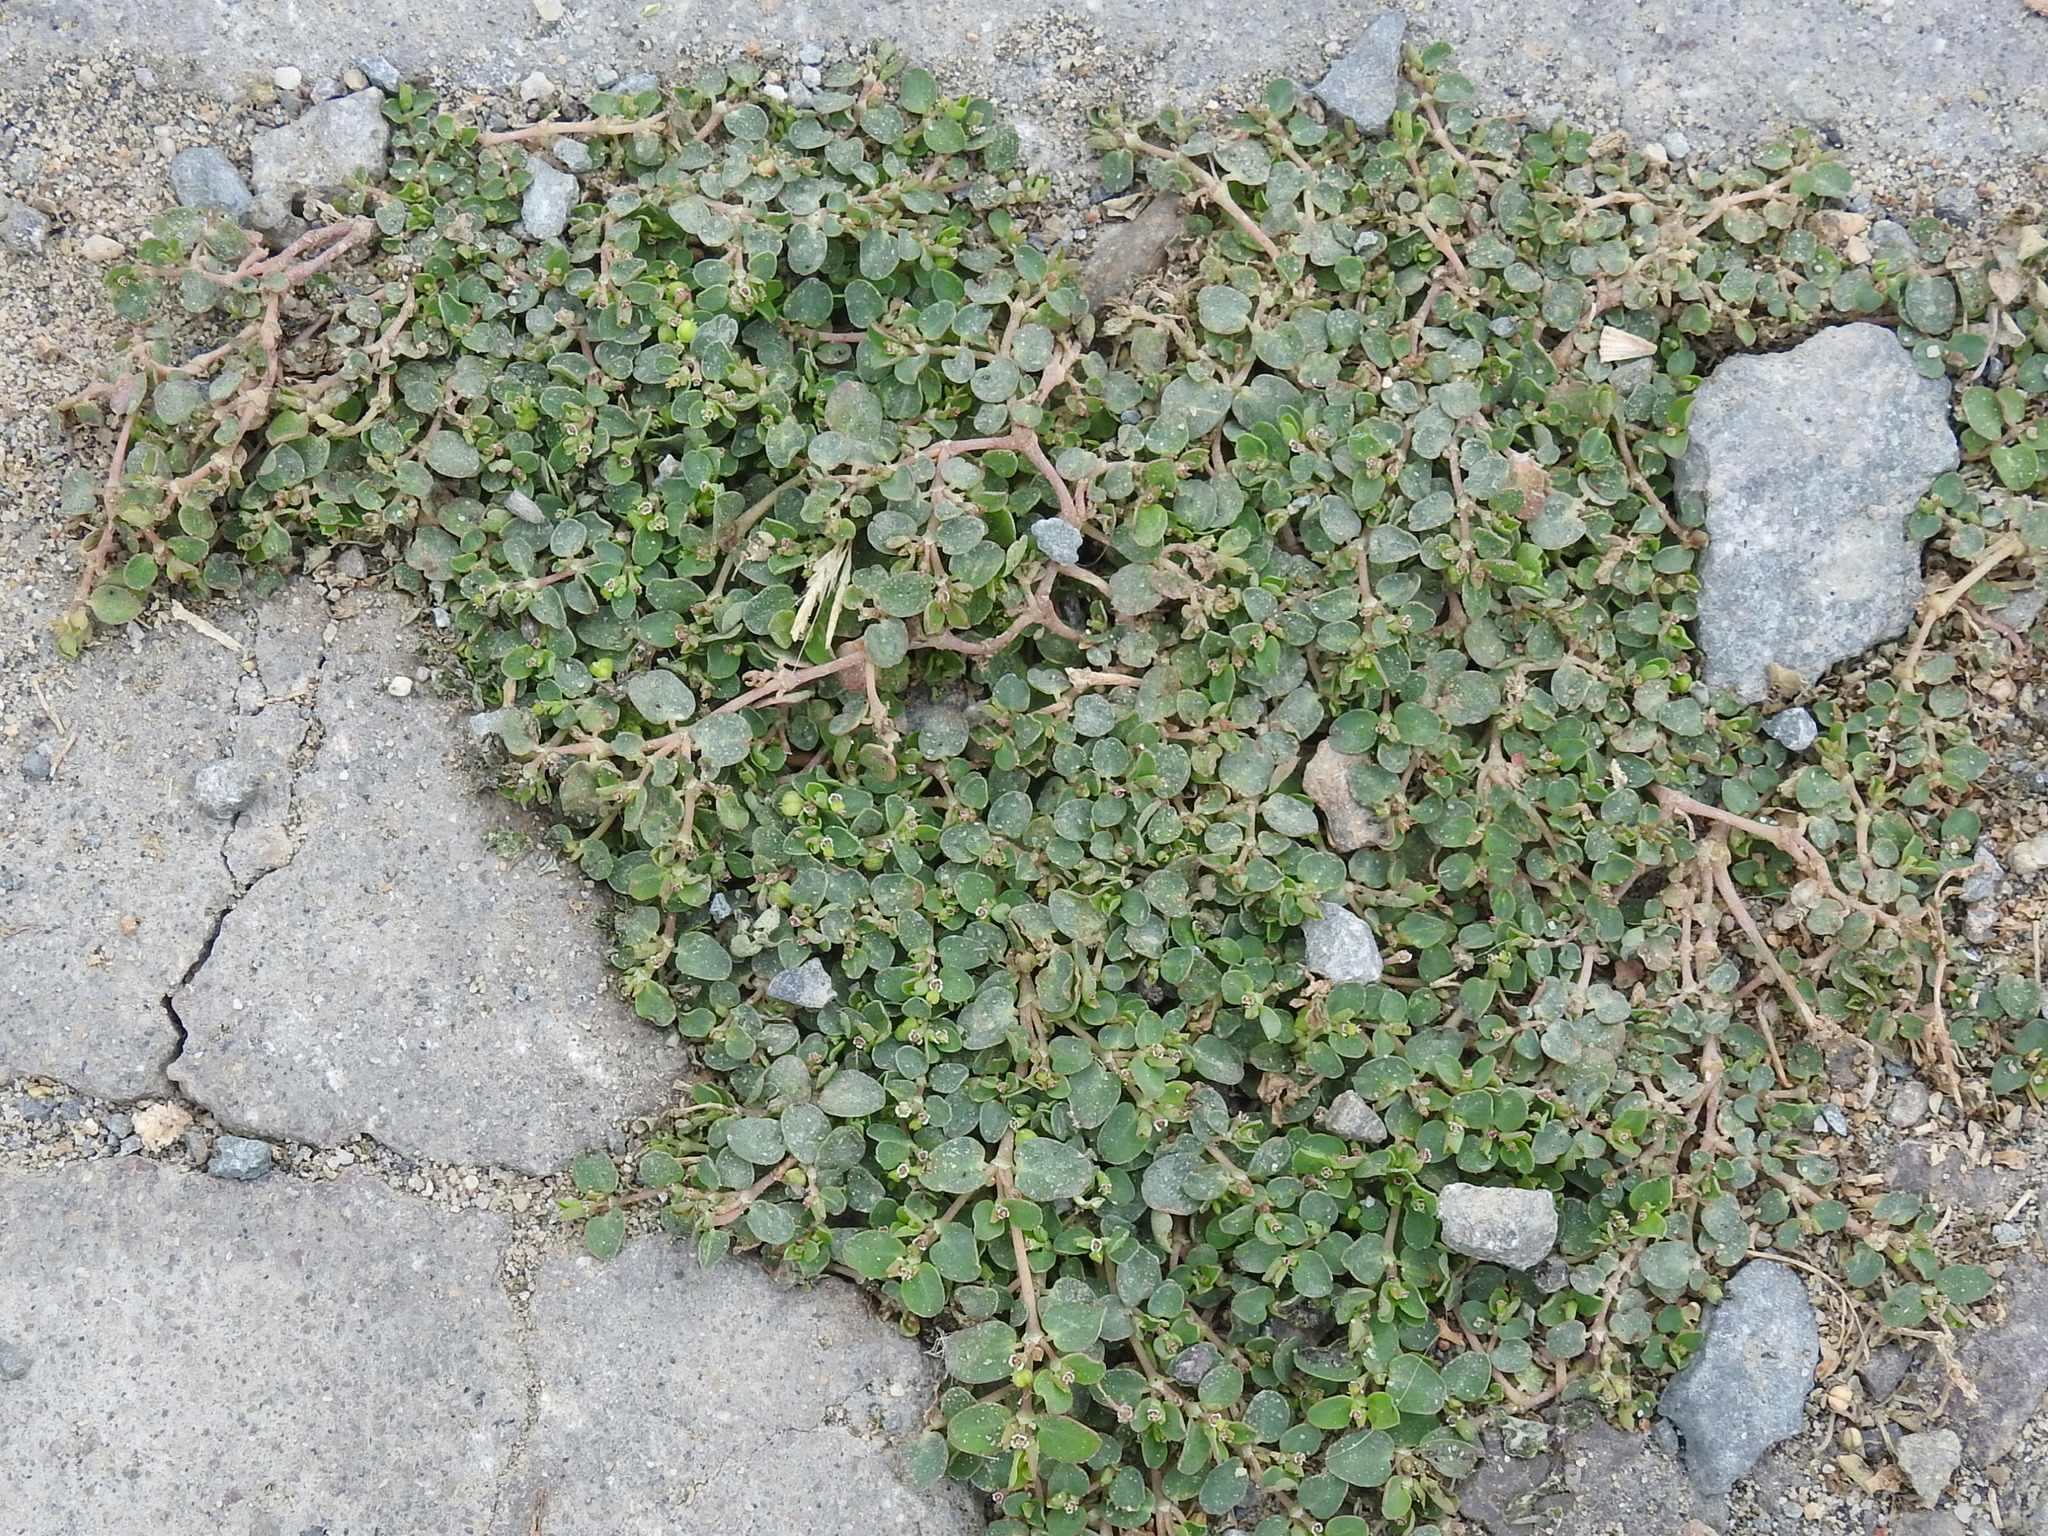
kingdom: Plantae
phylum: Tracheophyta
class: Magnoliopsida
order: Malpighiales
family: Euphorbiaceae
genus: Euphorbia
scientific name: Euphorbia serpens
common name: Matted sandmat
